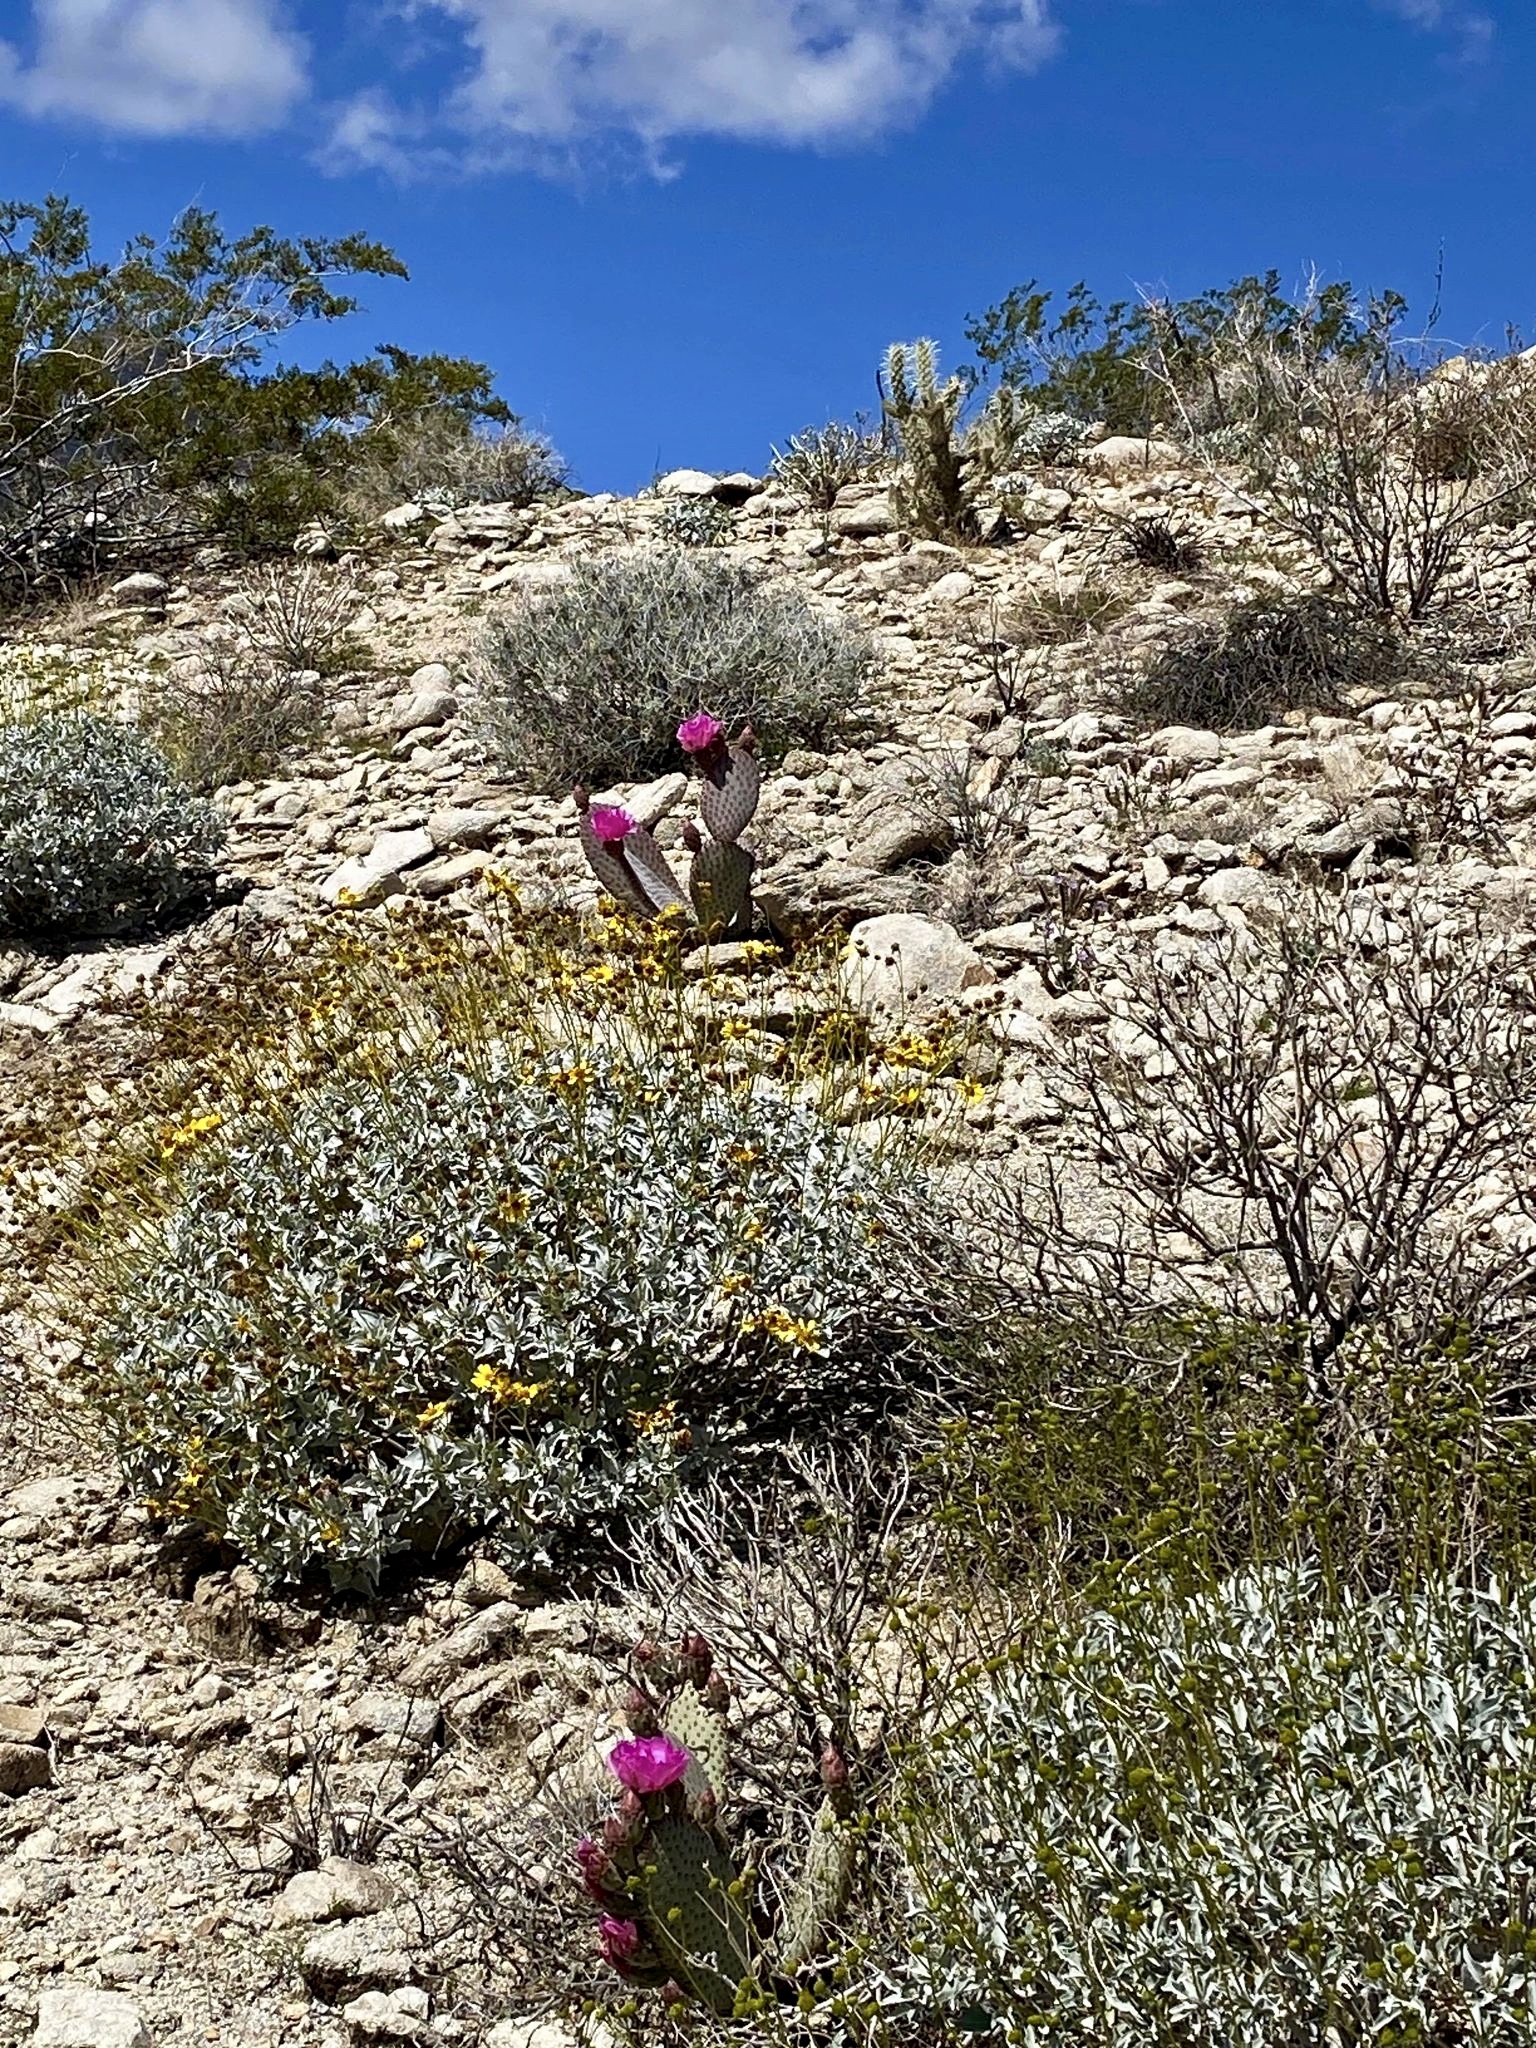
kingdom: Plantae
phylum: Tracheophyta
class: Magnoliopsida
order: Caryophyllales
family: Cactaceae
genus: Opuntia
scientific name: Opuntia basilaris
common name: Beavertail prickly-pear
